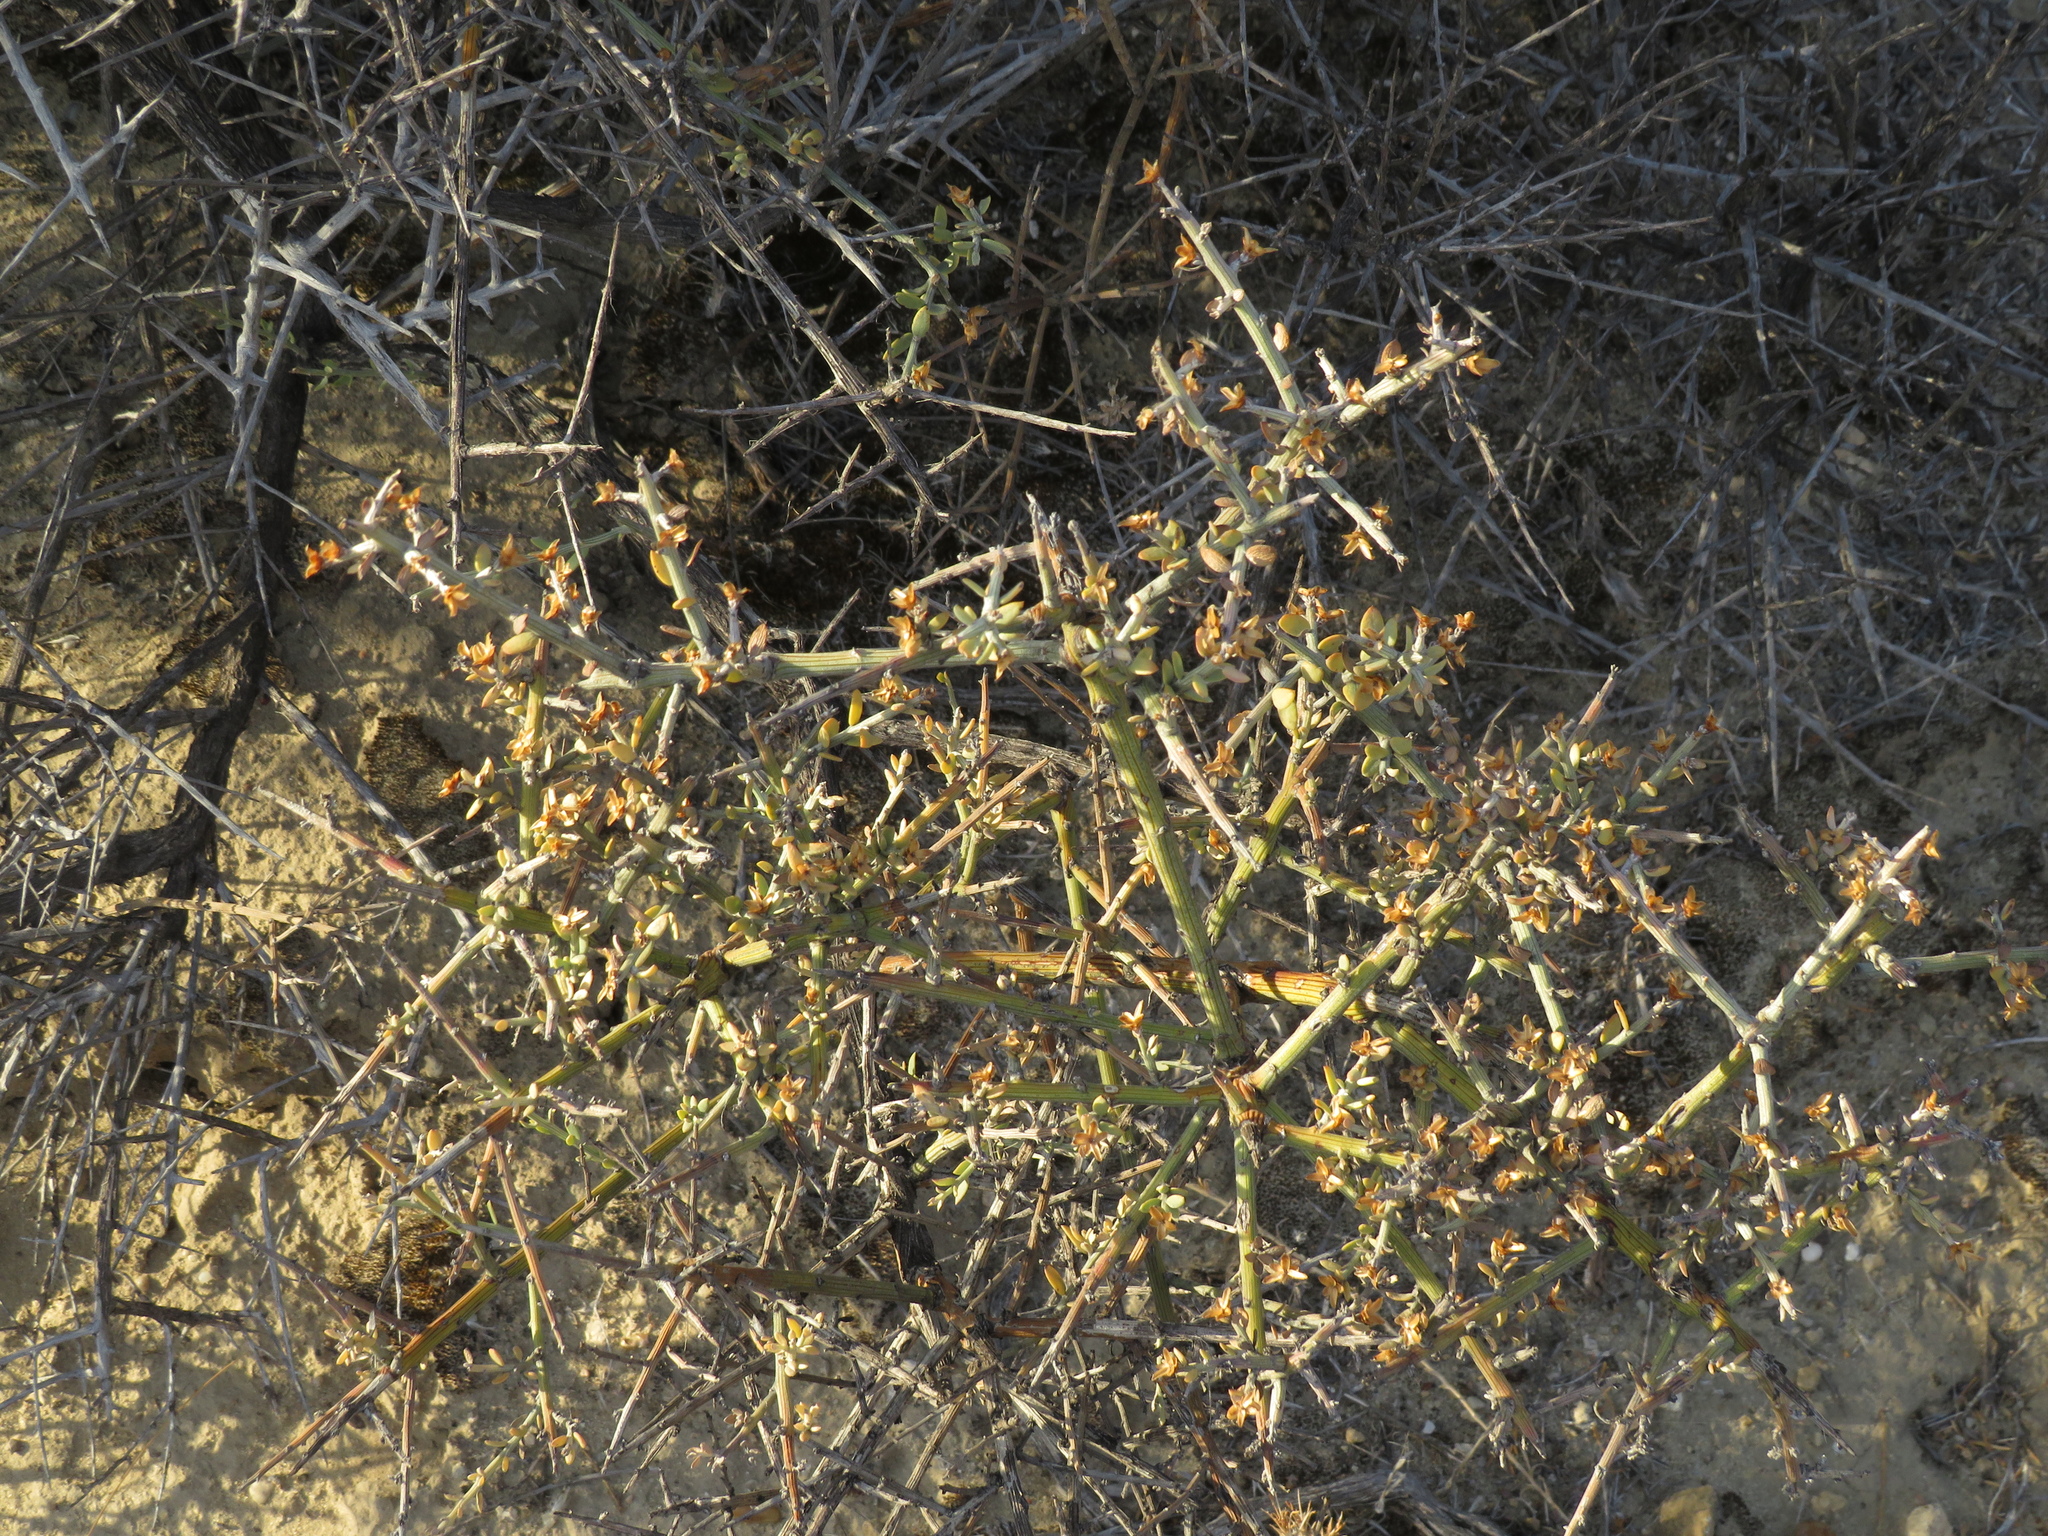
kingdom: Plantae
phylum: Tracheophyta
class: Magnoliopsida
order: Asterales
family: Asteraceae
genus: Cyclolepis
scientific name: Cyclolepis genistoides
